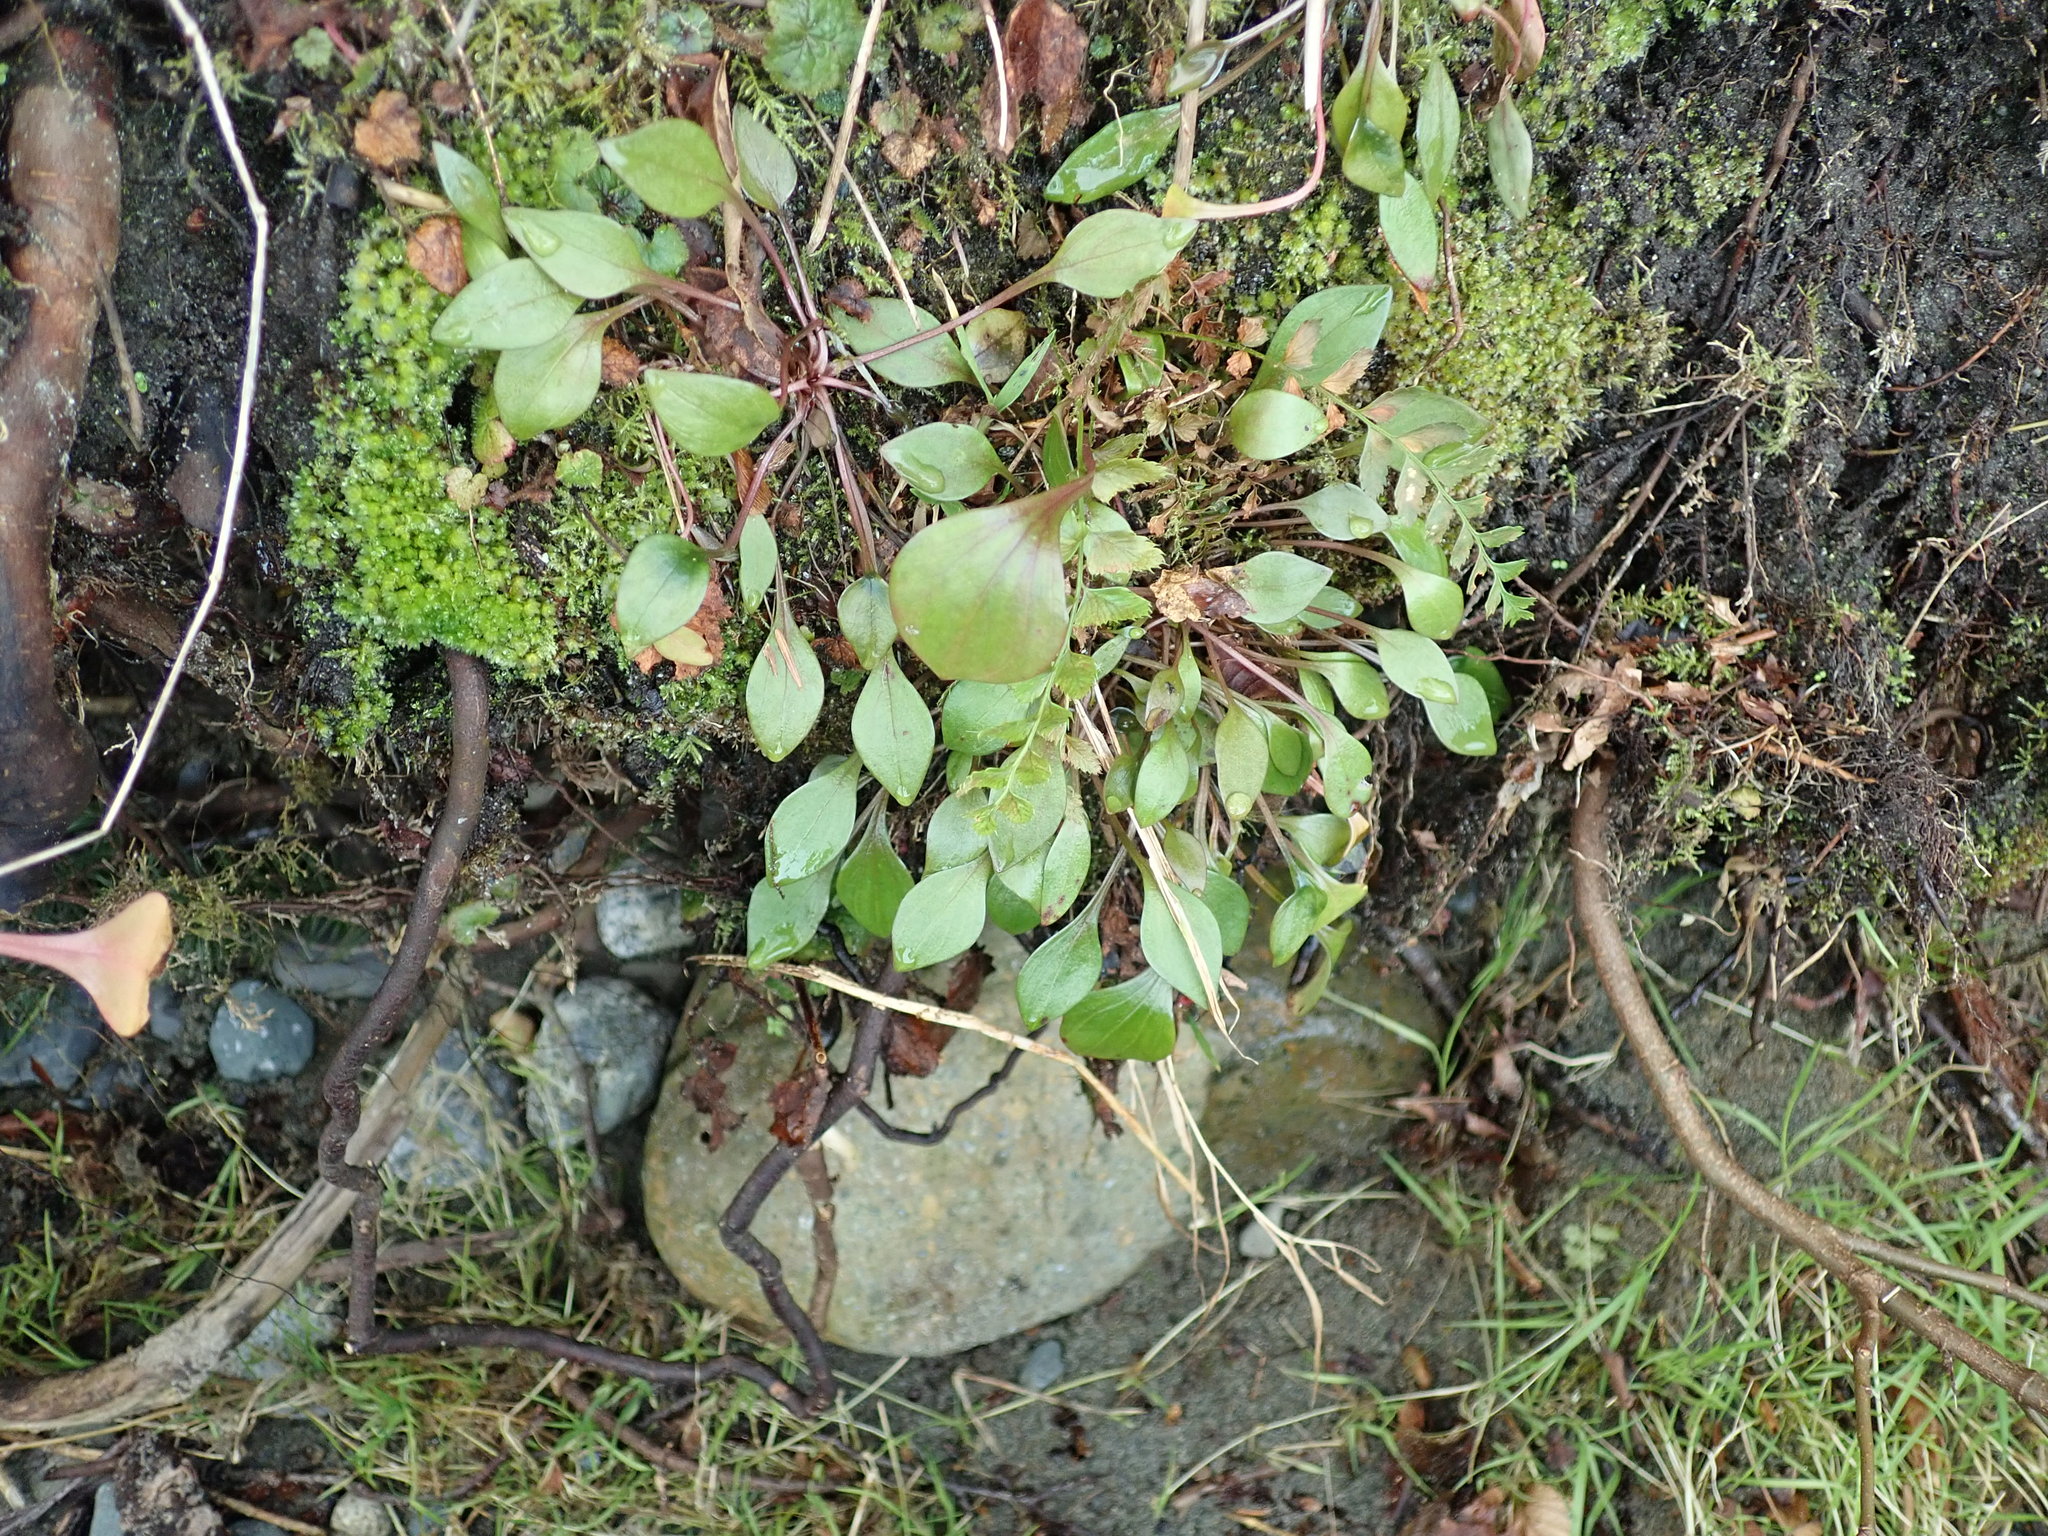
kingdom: Plantae
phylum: Tracheophyta
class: Magnoliopsida
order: Caryophyllales
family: Montiaceae
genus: Claytonia
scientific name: Claytonia sibirica
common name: Pink purslane
